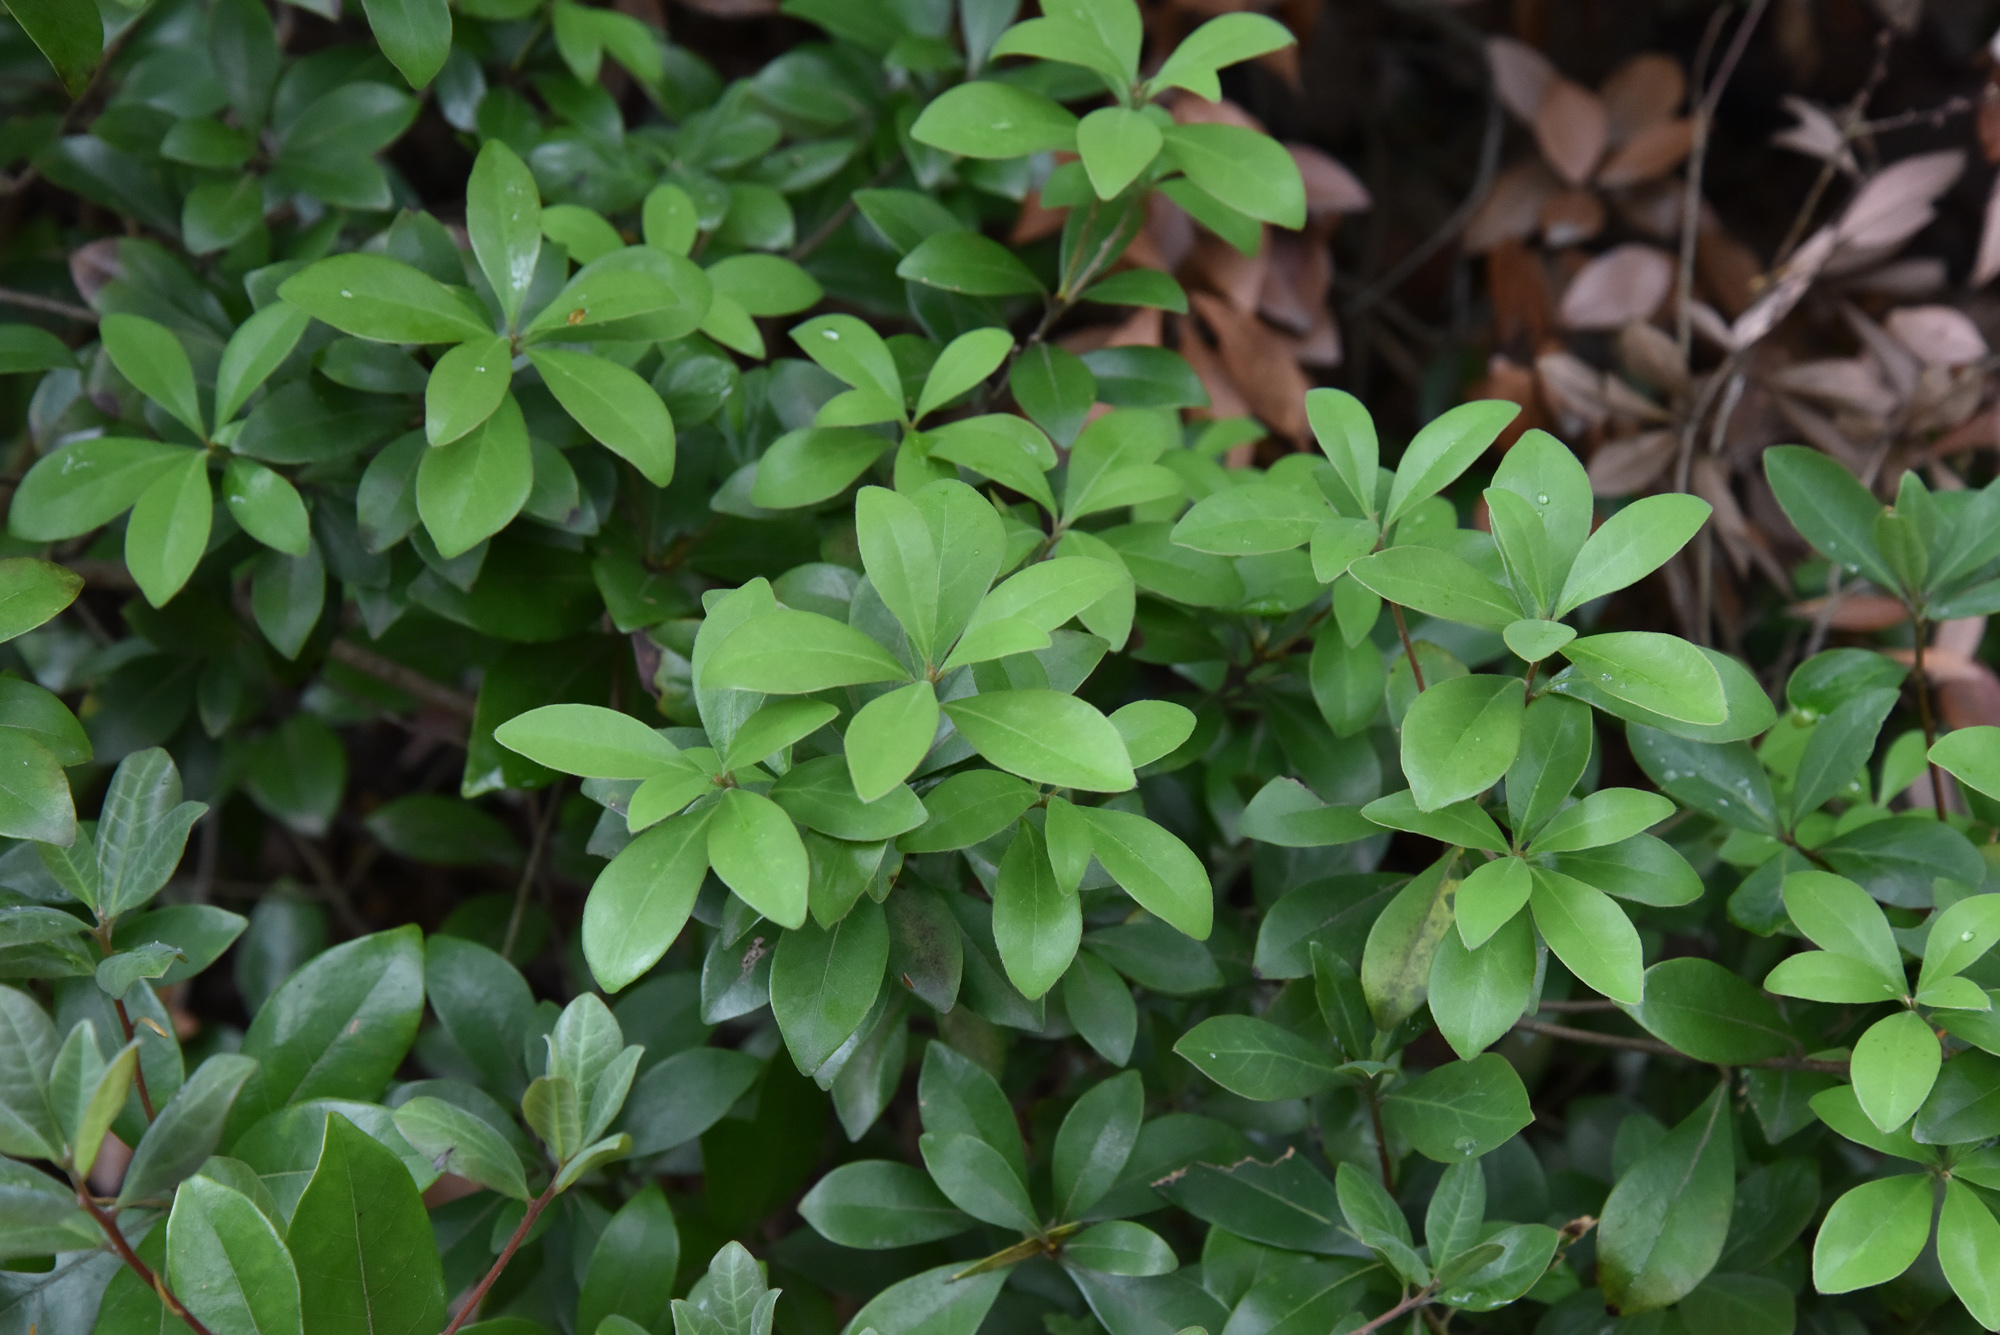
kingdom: Plantae
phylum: Tracheophyta
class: Magnoliopsida
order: Laurales
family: Lauraceae
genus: Litsea
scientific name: Litsea rotundifolia
